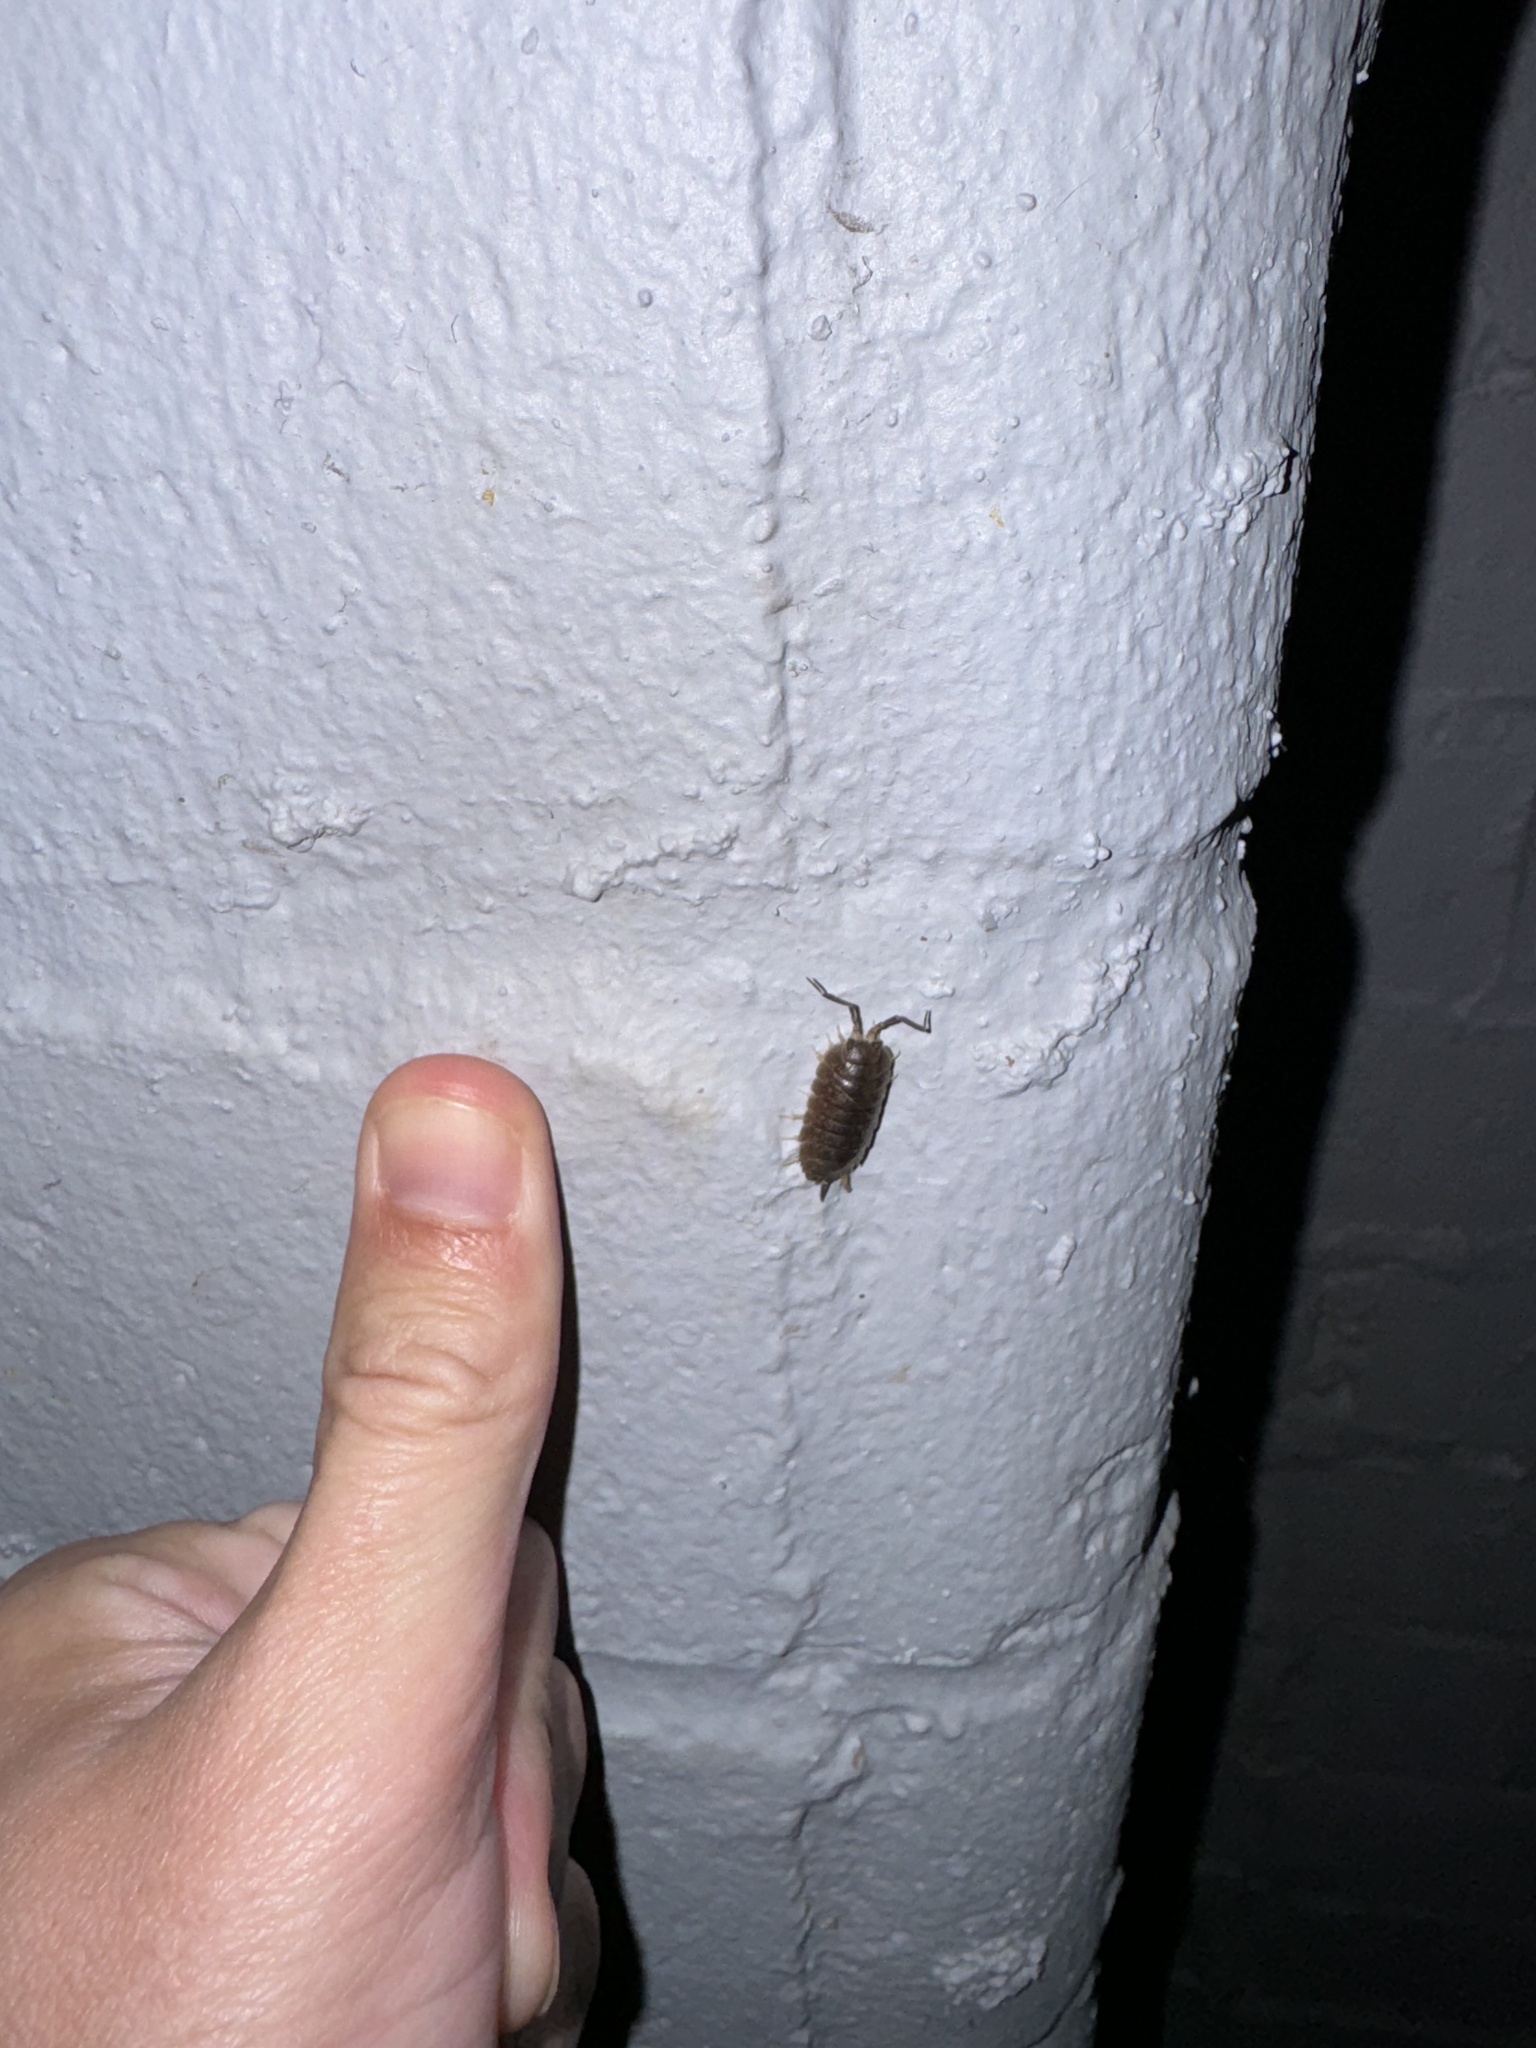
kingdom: Animalia
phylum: Arthropoda
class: Malacostraca
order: Isopoda
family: Porcellionidae
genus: Porcellio
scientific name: Porcellio laevis
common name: Swift woodlouse
